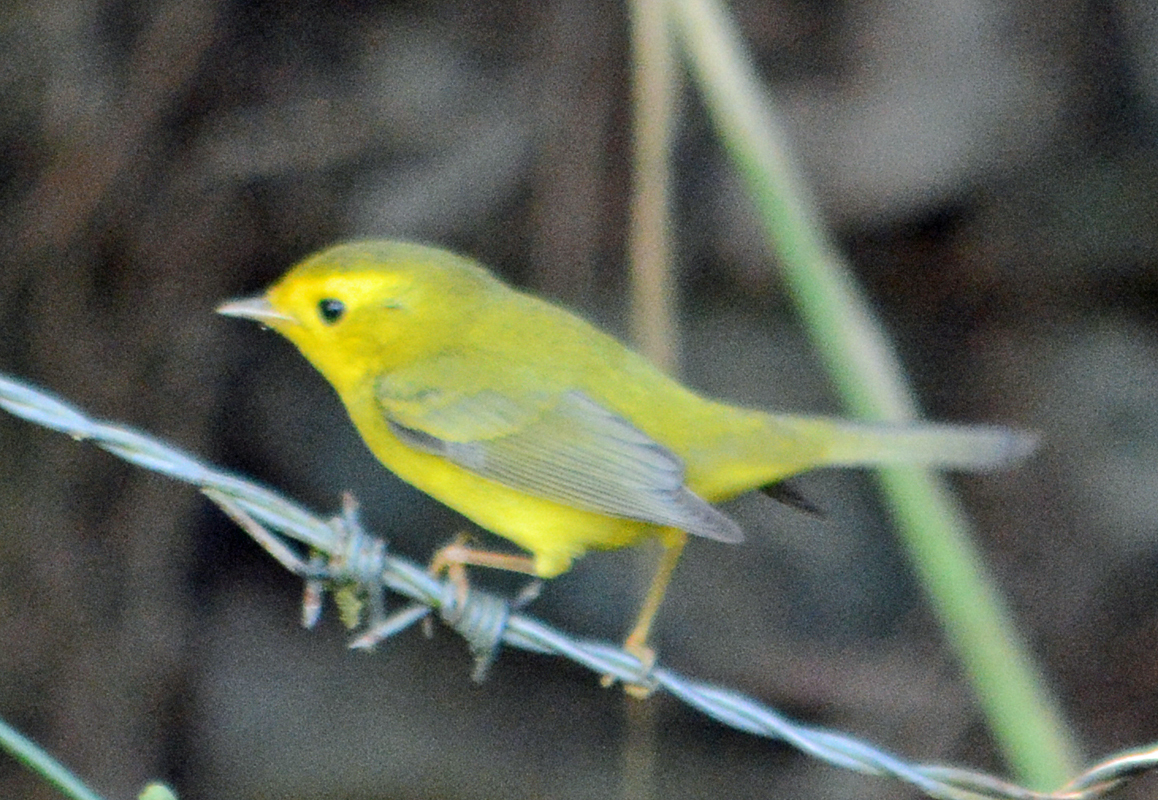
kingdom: Animalia
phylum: Chordata
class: Aves
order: Passeriformes
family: Parulidae
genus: Cardellina
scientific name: Cardellina pusilla
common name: Wilson's warbler
